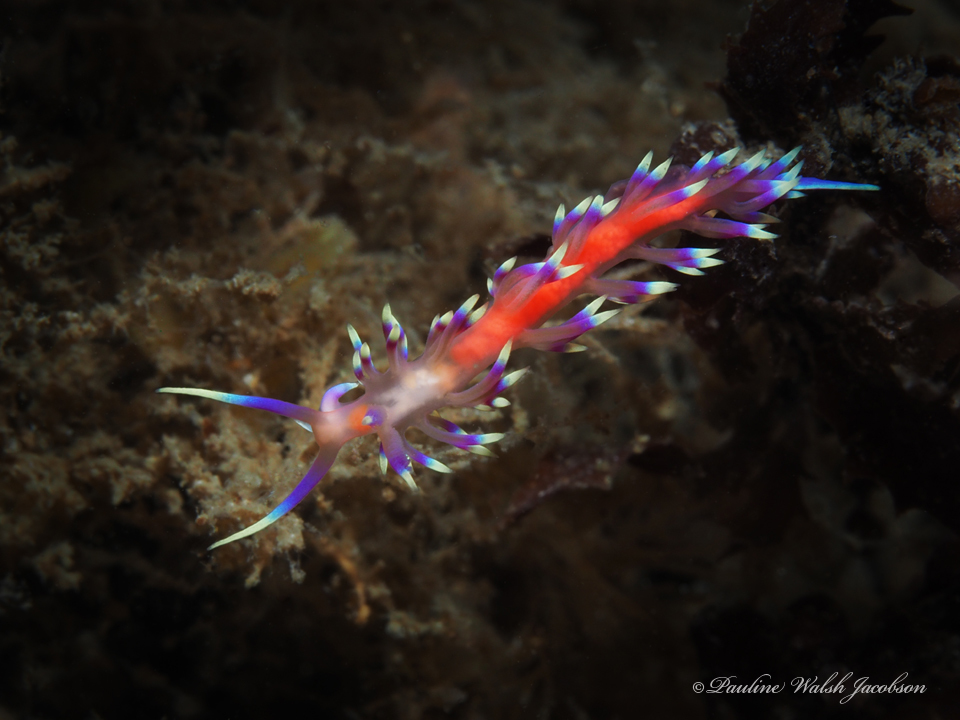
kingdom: Animalia
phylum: Mollusca
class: Gastropoda
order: Nudibranchia
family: Flabellinidae
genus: Coryphellina
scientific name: Coryphellina marcusorum
